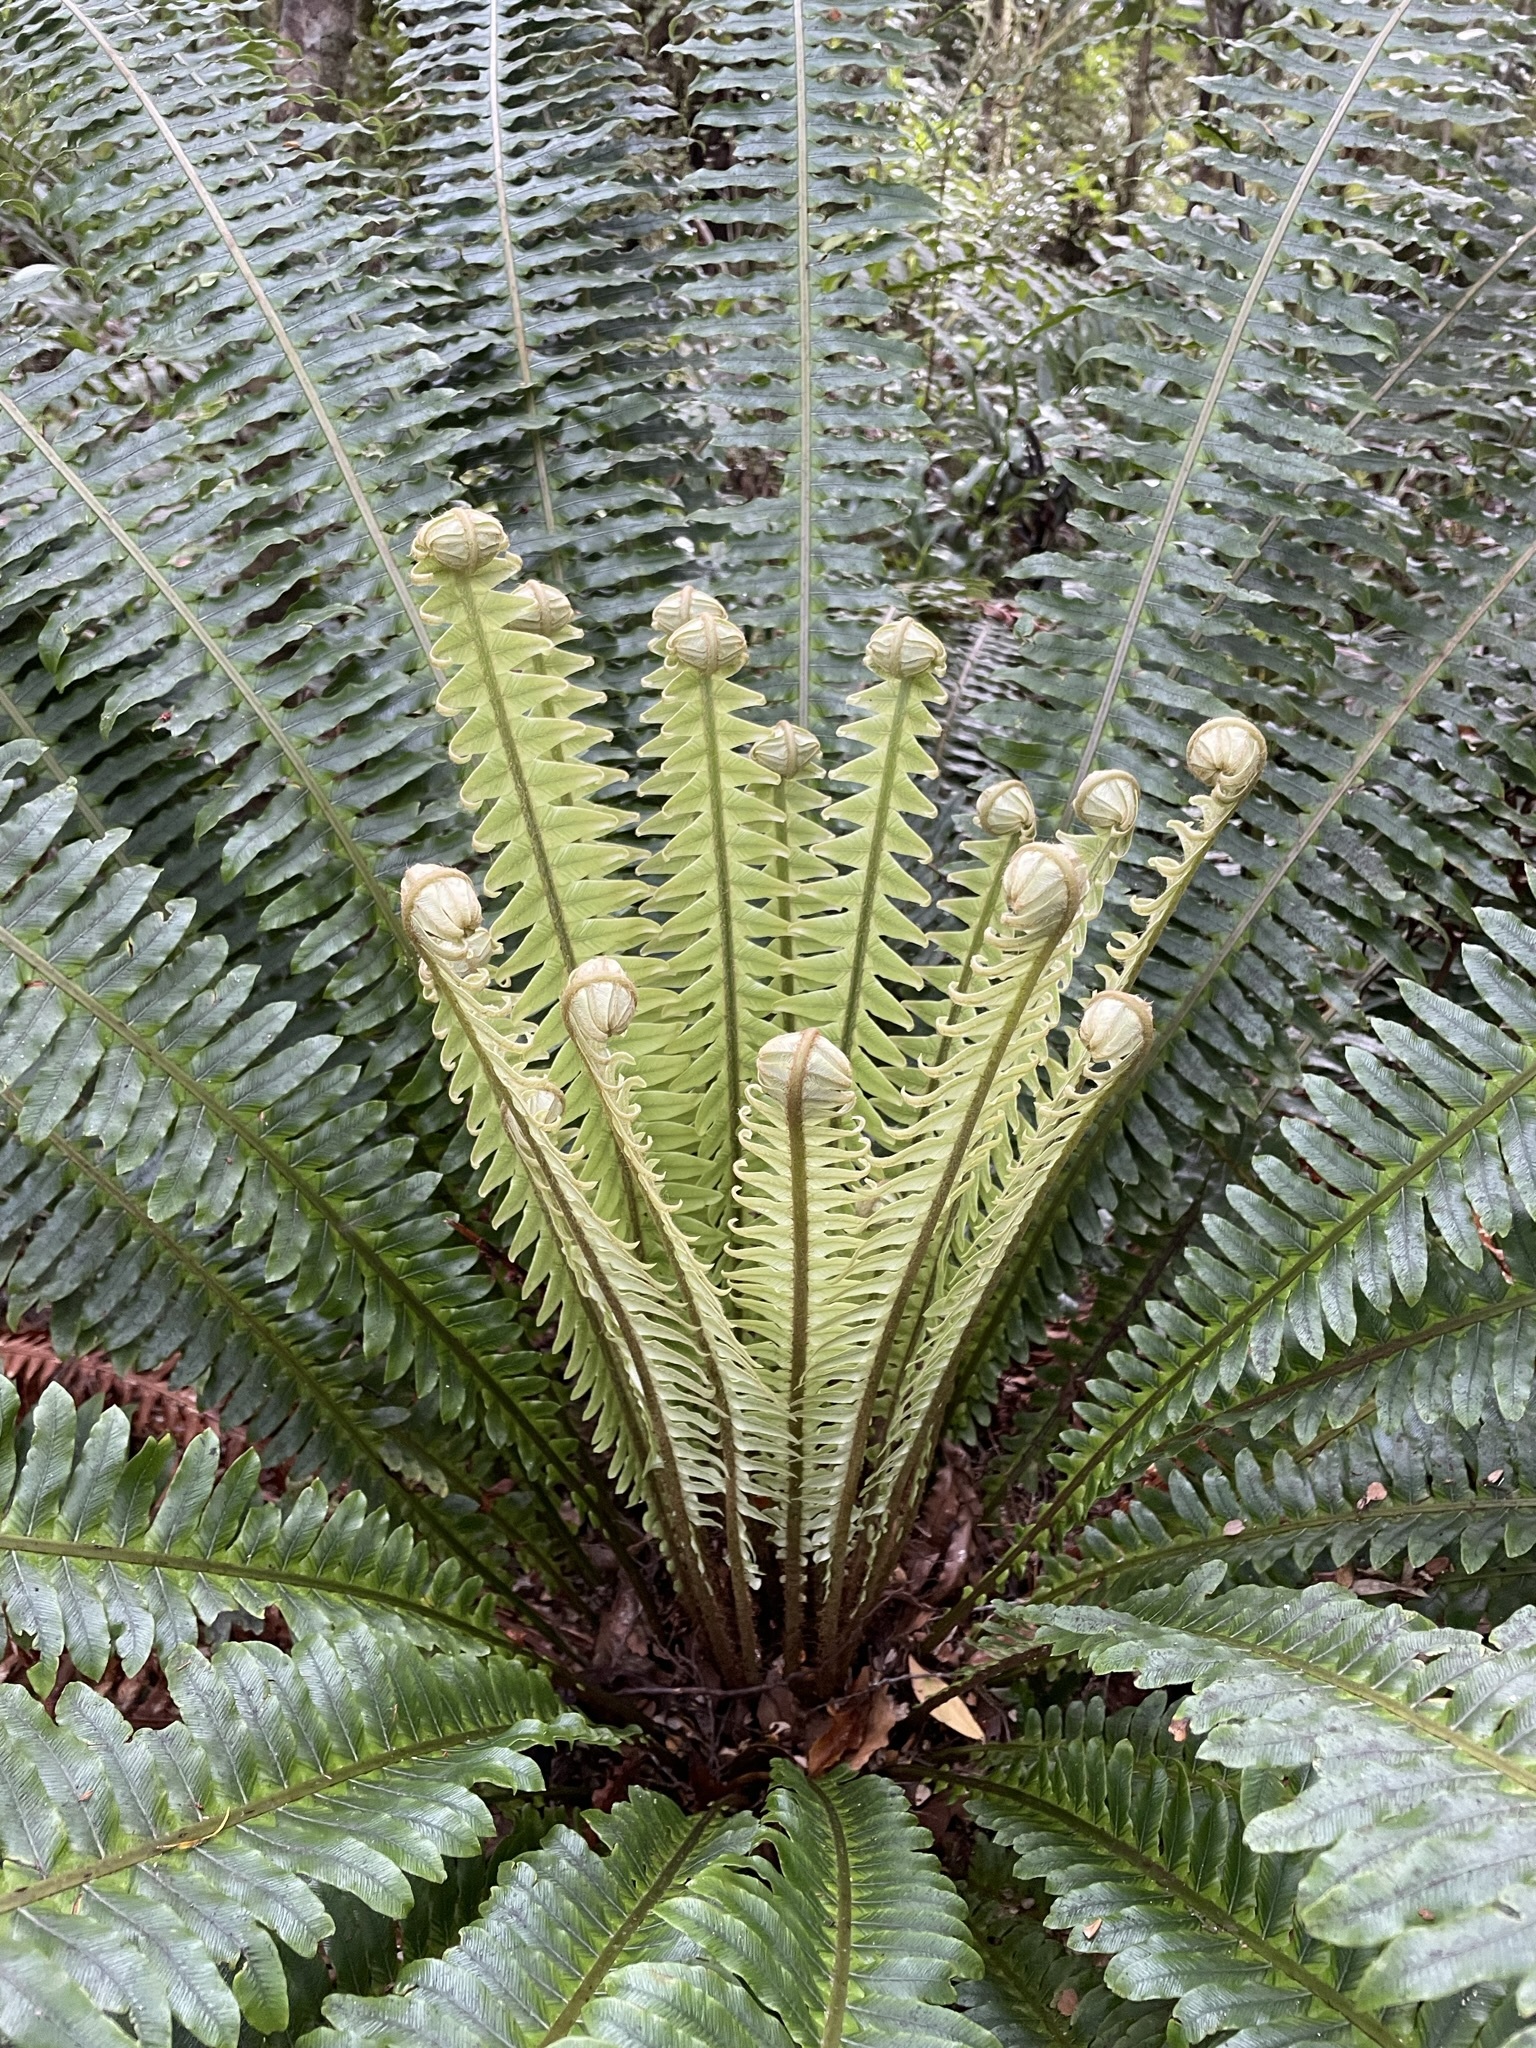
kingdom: Plantae
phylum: Tracheophyta
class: Polypodiopsida
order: Polypodiales
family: Blechnaceae
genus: Lomaria
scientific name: Lomaria discolor
